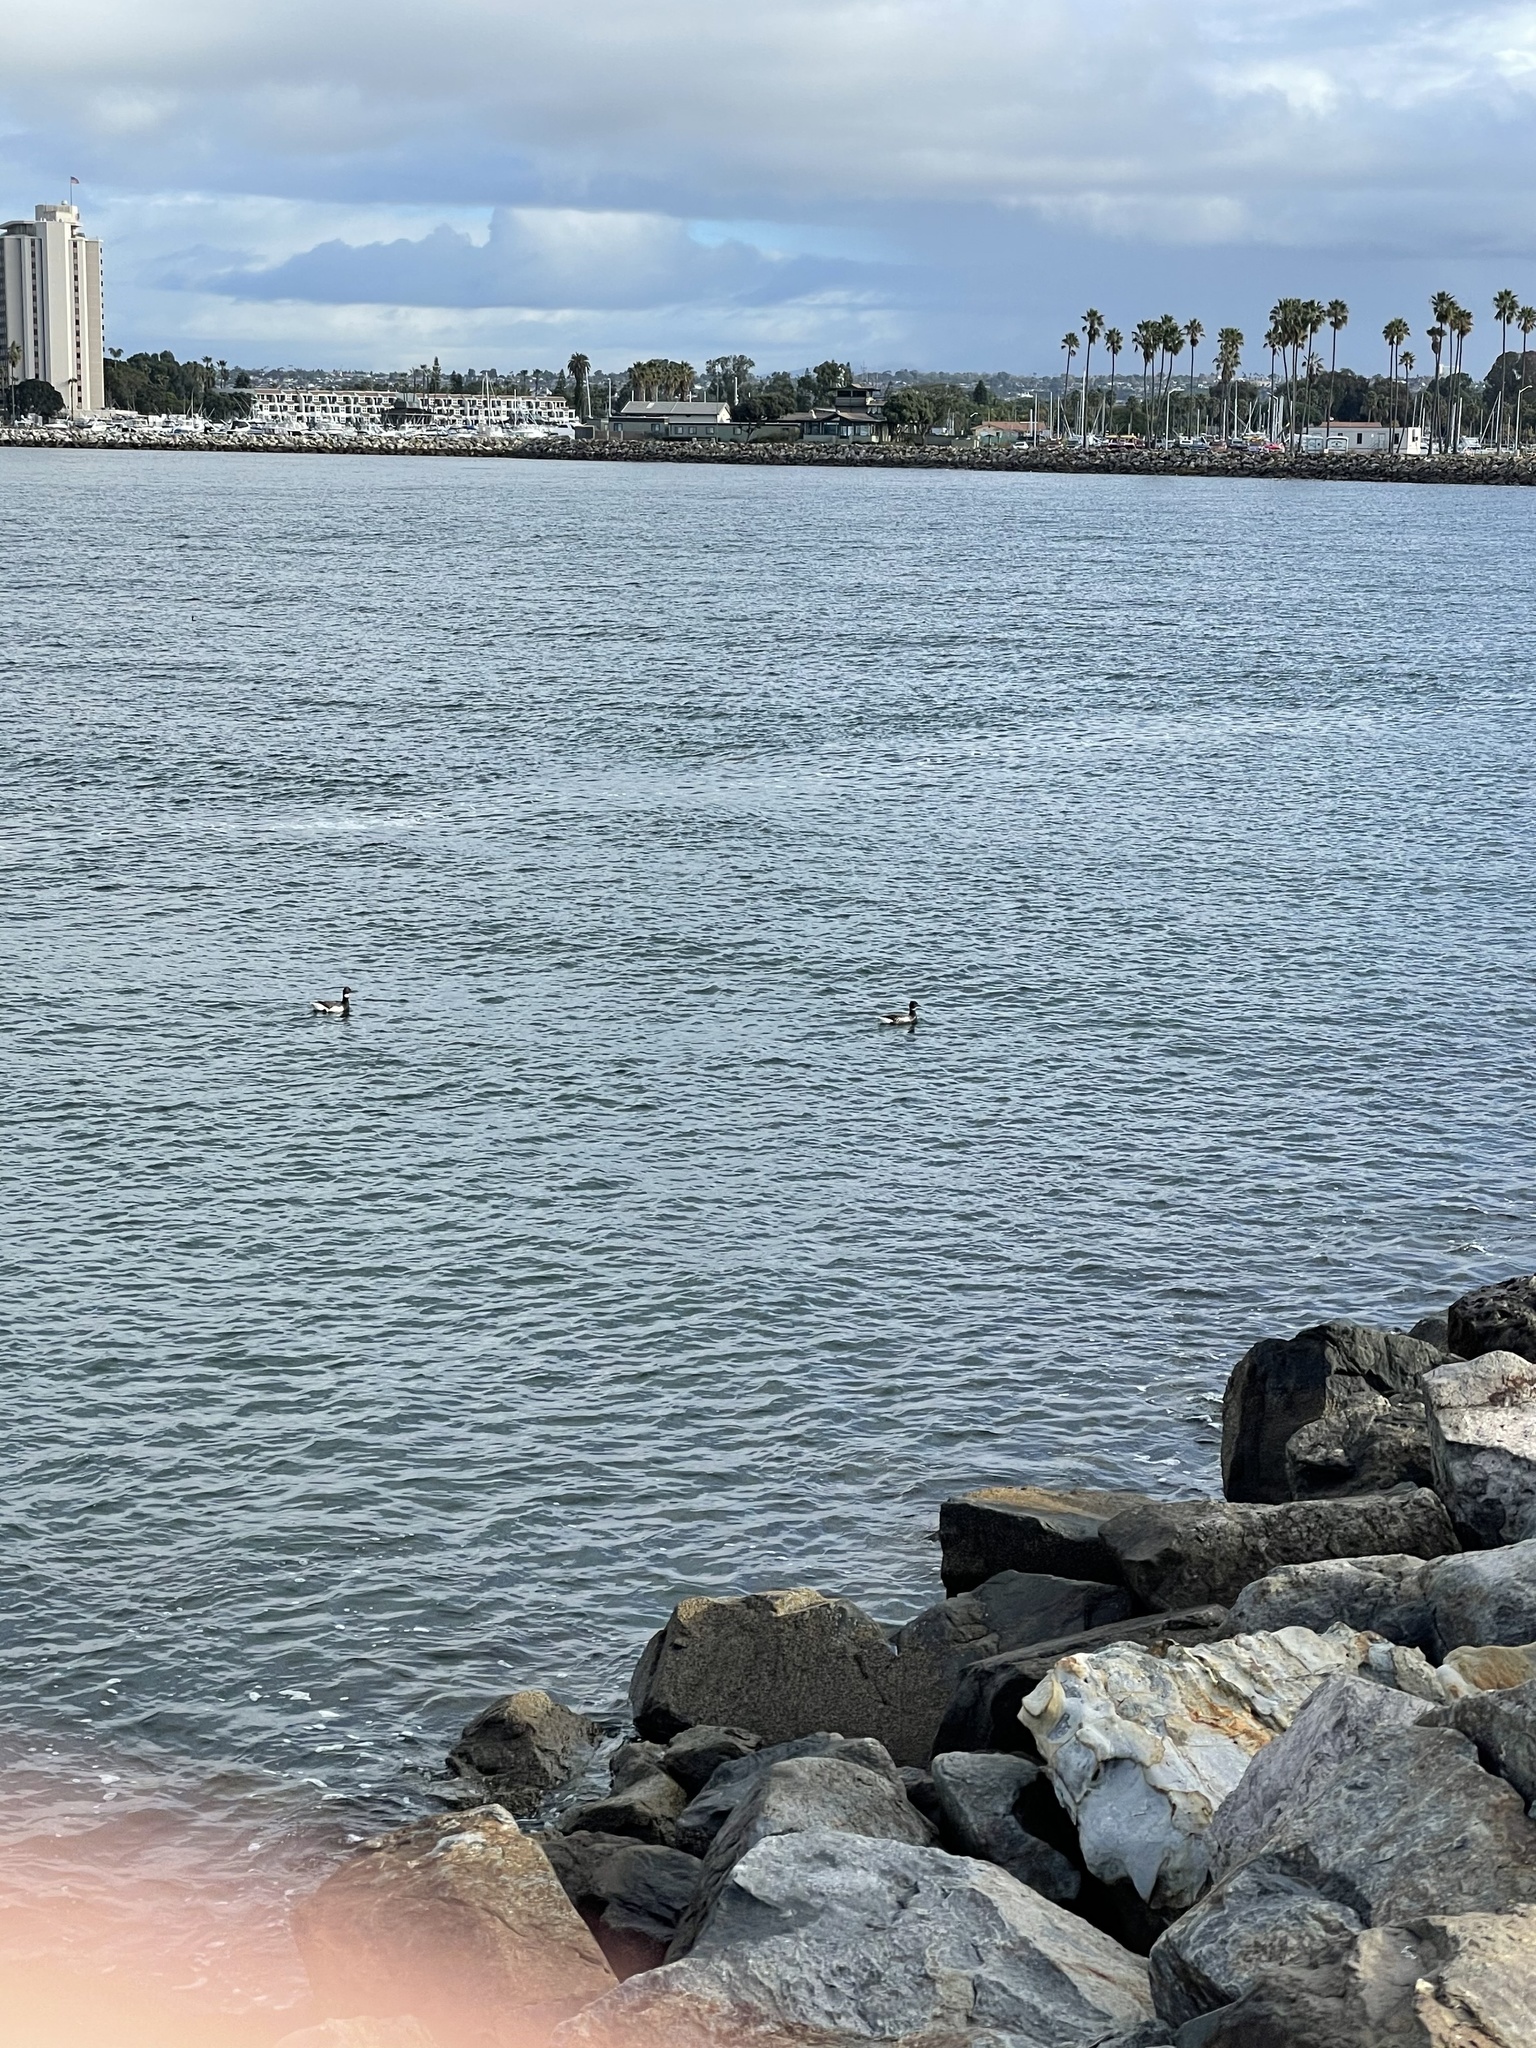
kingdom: Animalia
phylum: Chordata
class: Aves
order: Anseriformes
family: Anatidae
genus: Branta
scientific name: Branta bernicla
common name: Brant goose
